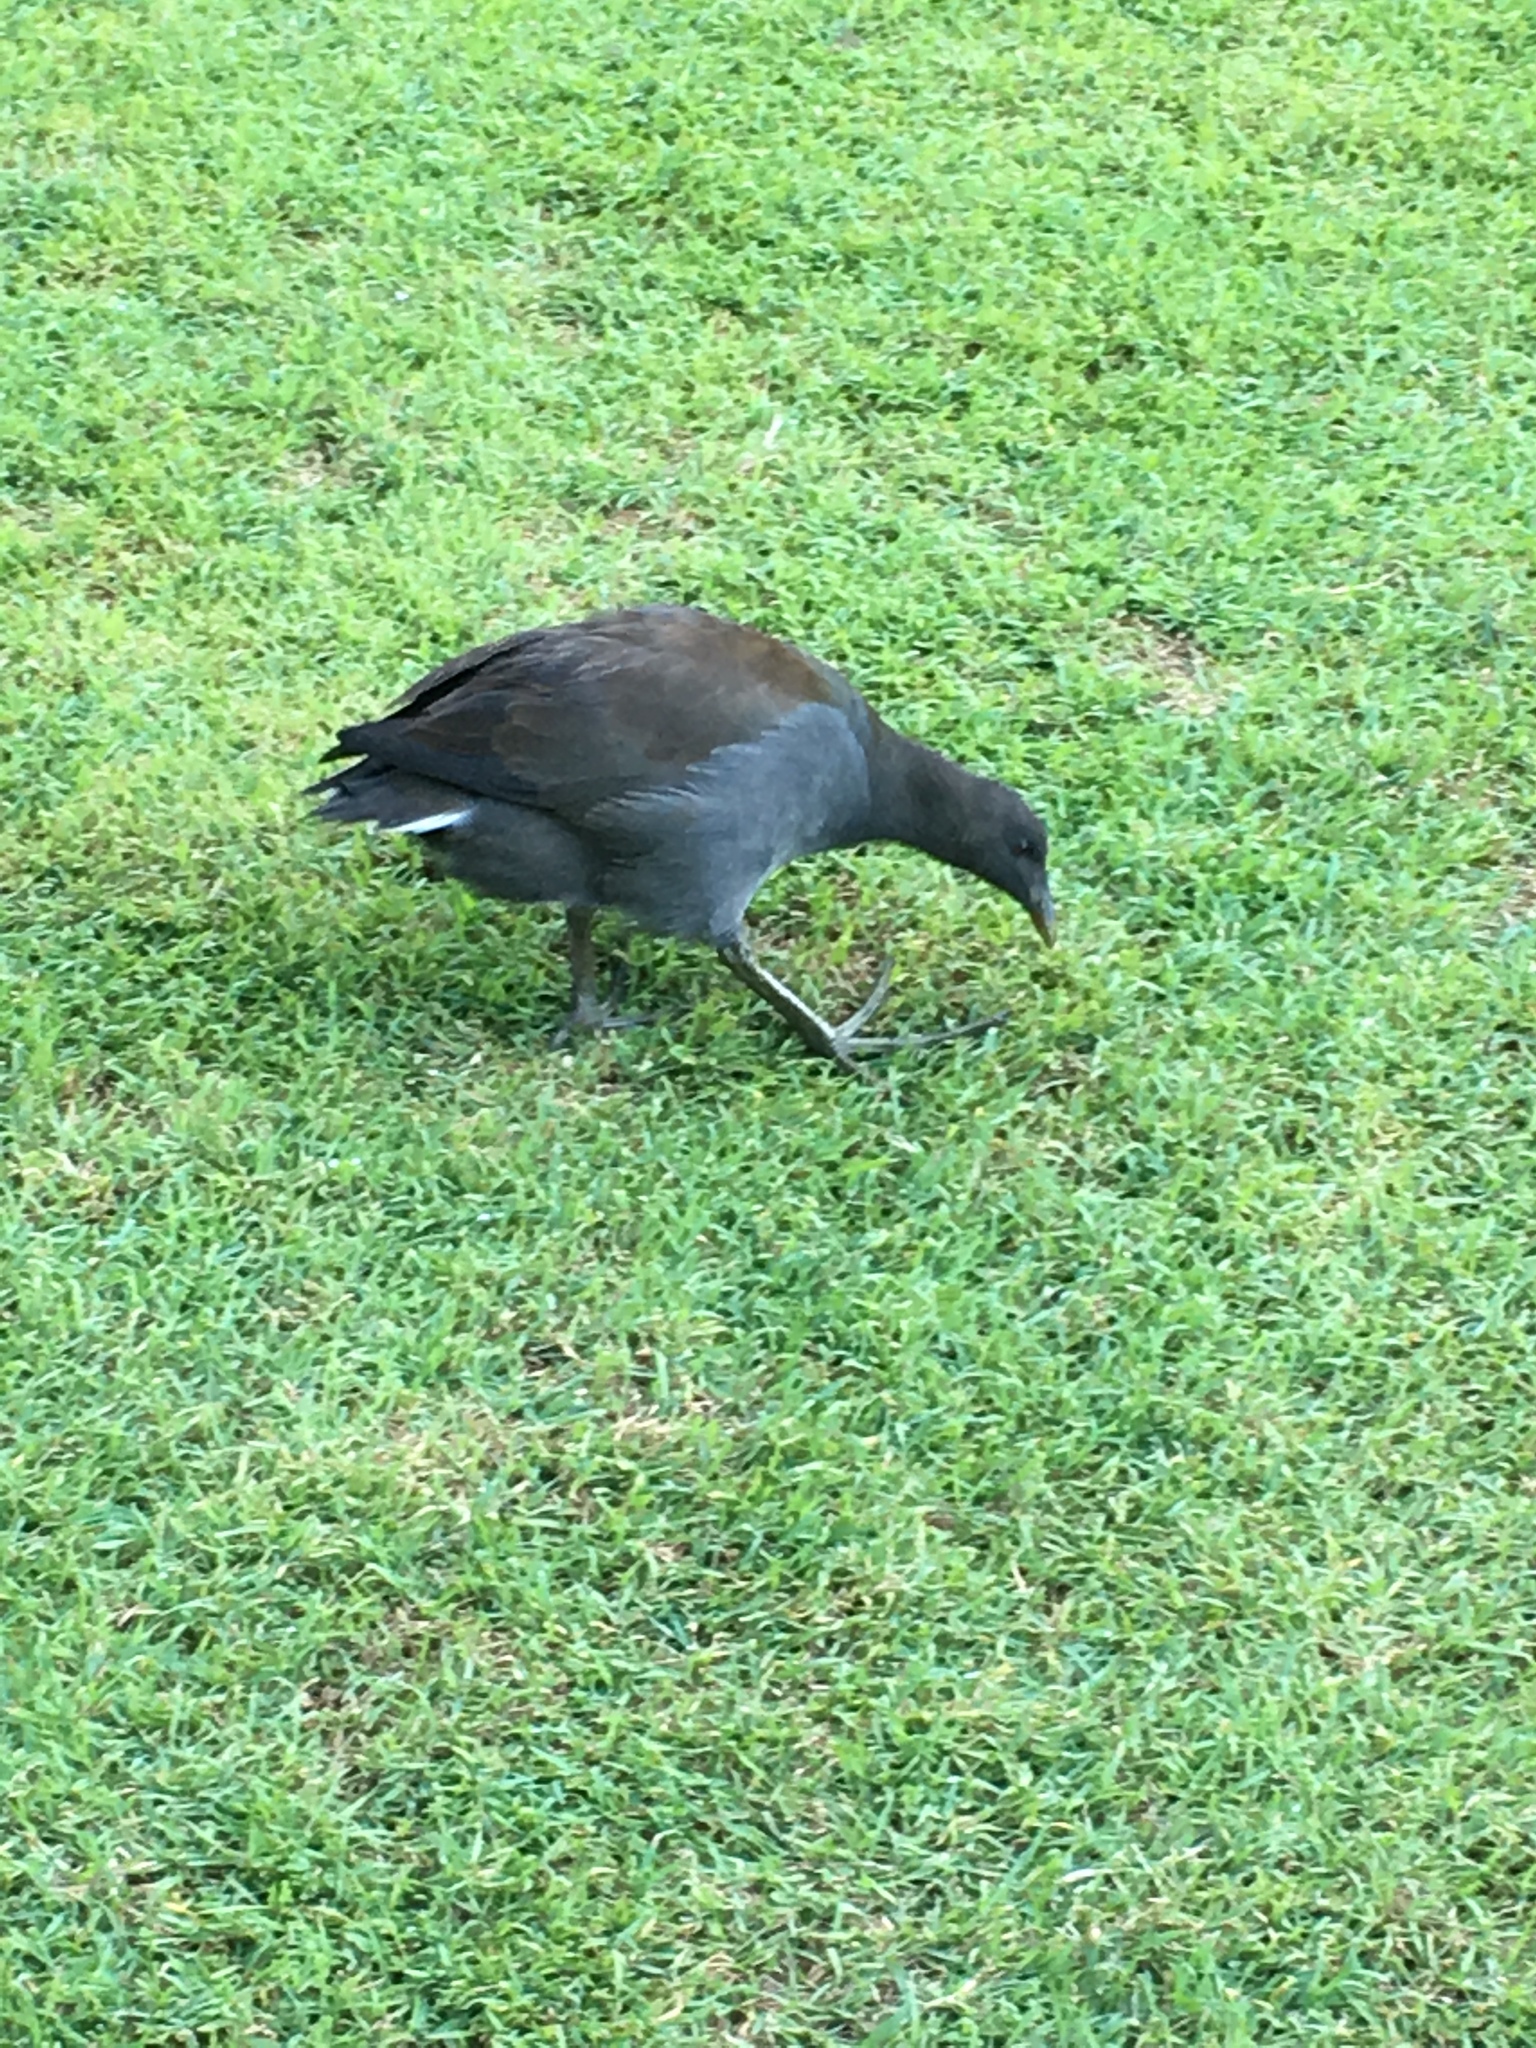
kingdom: Animalia
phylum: Chordata
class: Aves
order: Gruiformes
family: Rallidae
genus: Gallinula
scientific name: Gallinula tenebrosa
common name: Dusky moorhen
